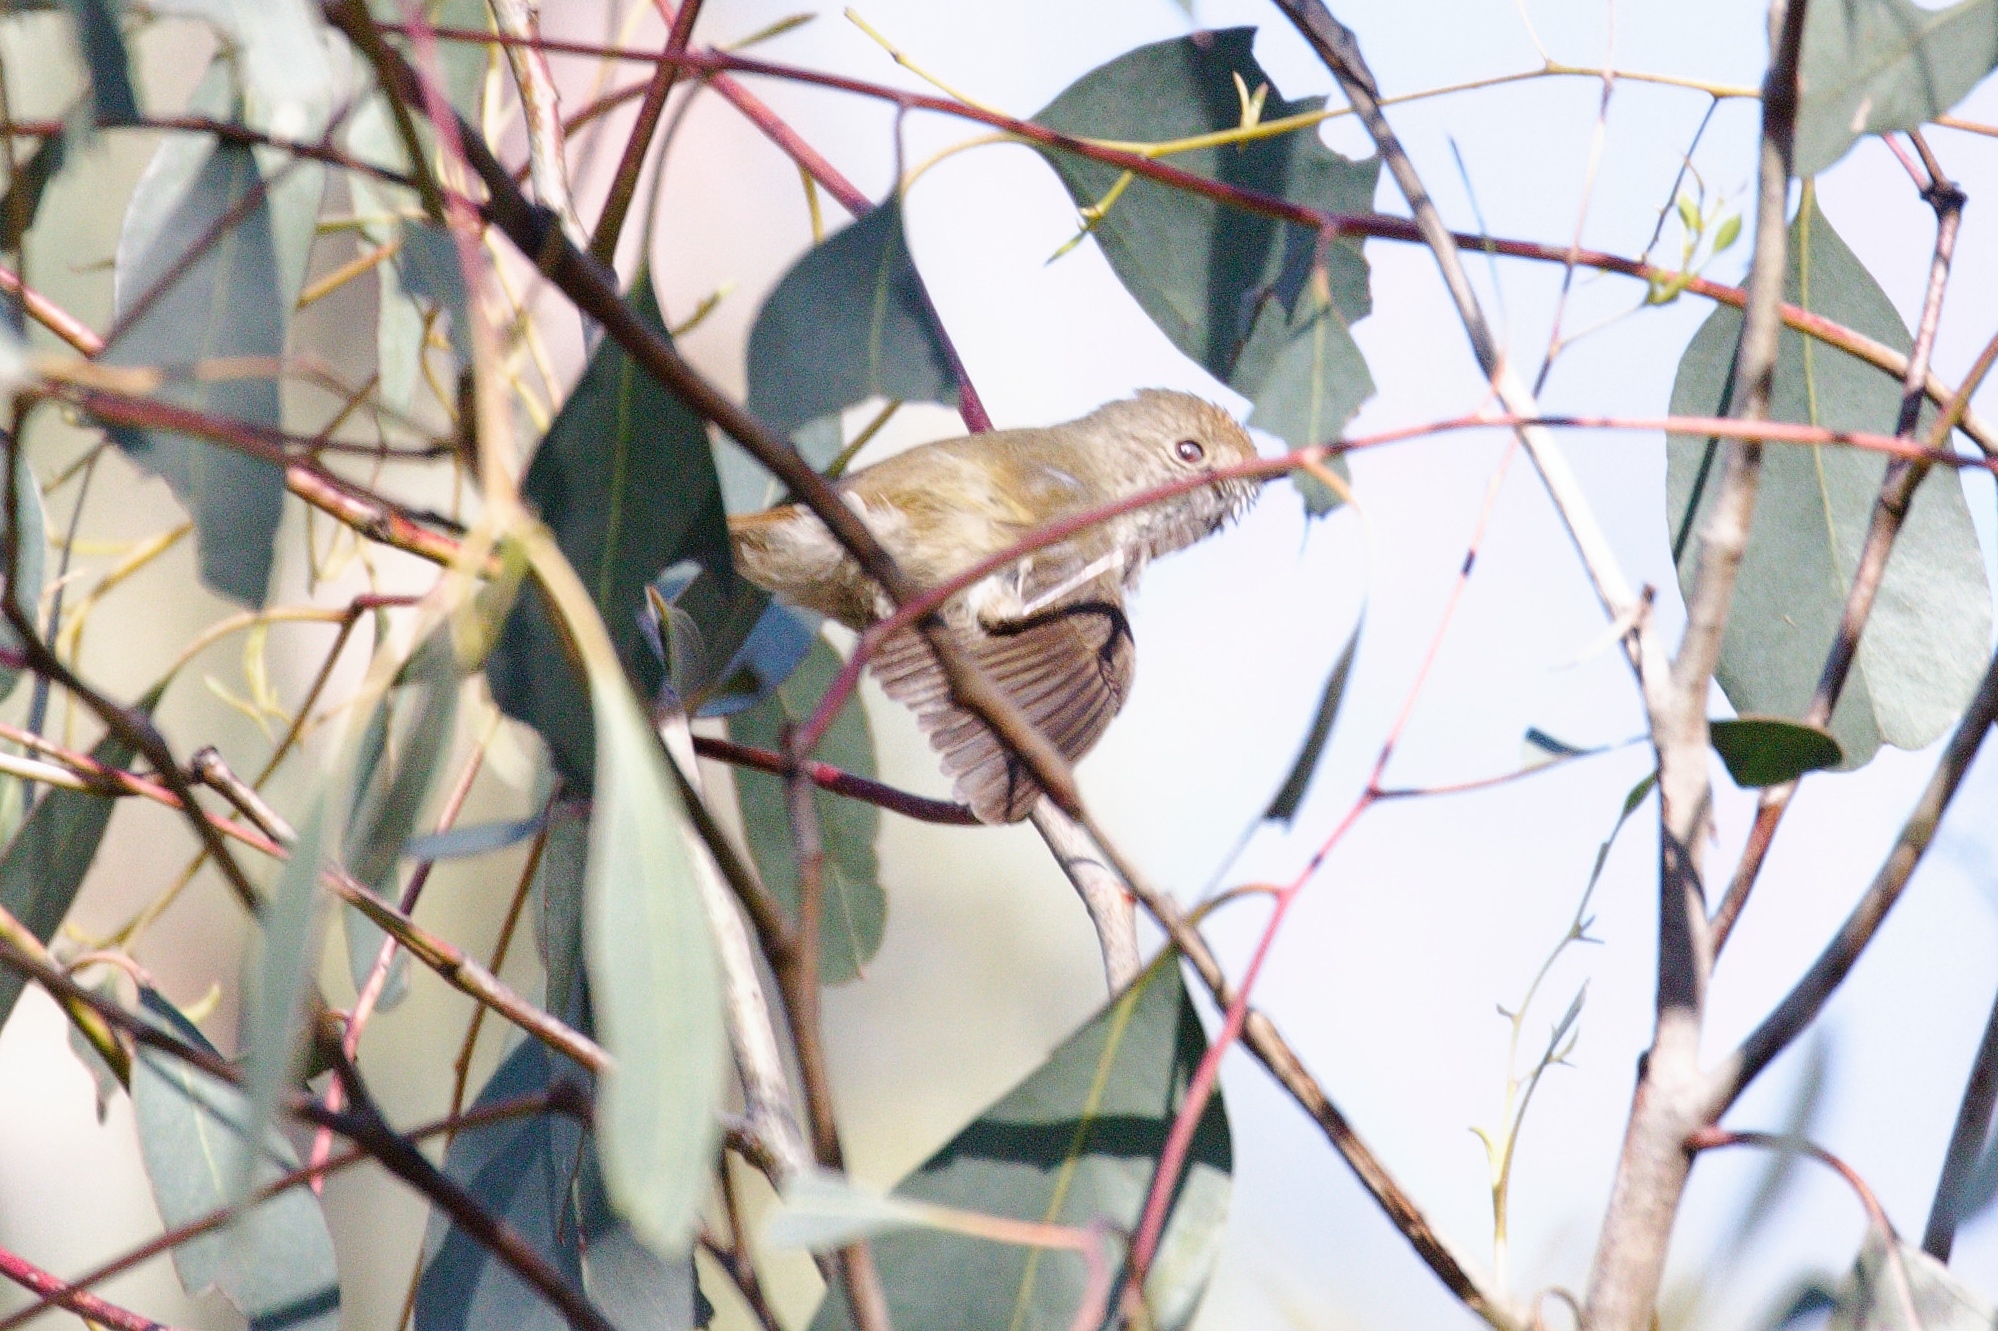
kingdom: Animalia
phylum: Chordata
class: Aves
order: Passeriformes
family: Acanthizidae
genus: Acanthiza
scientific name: Acanthiza pusilla
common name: Brown thornbill
